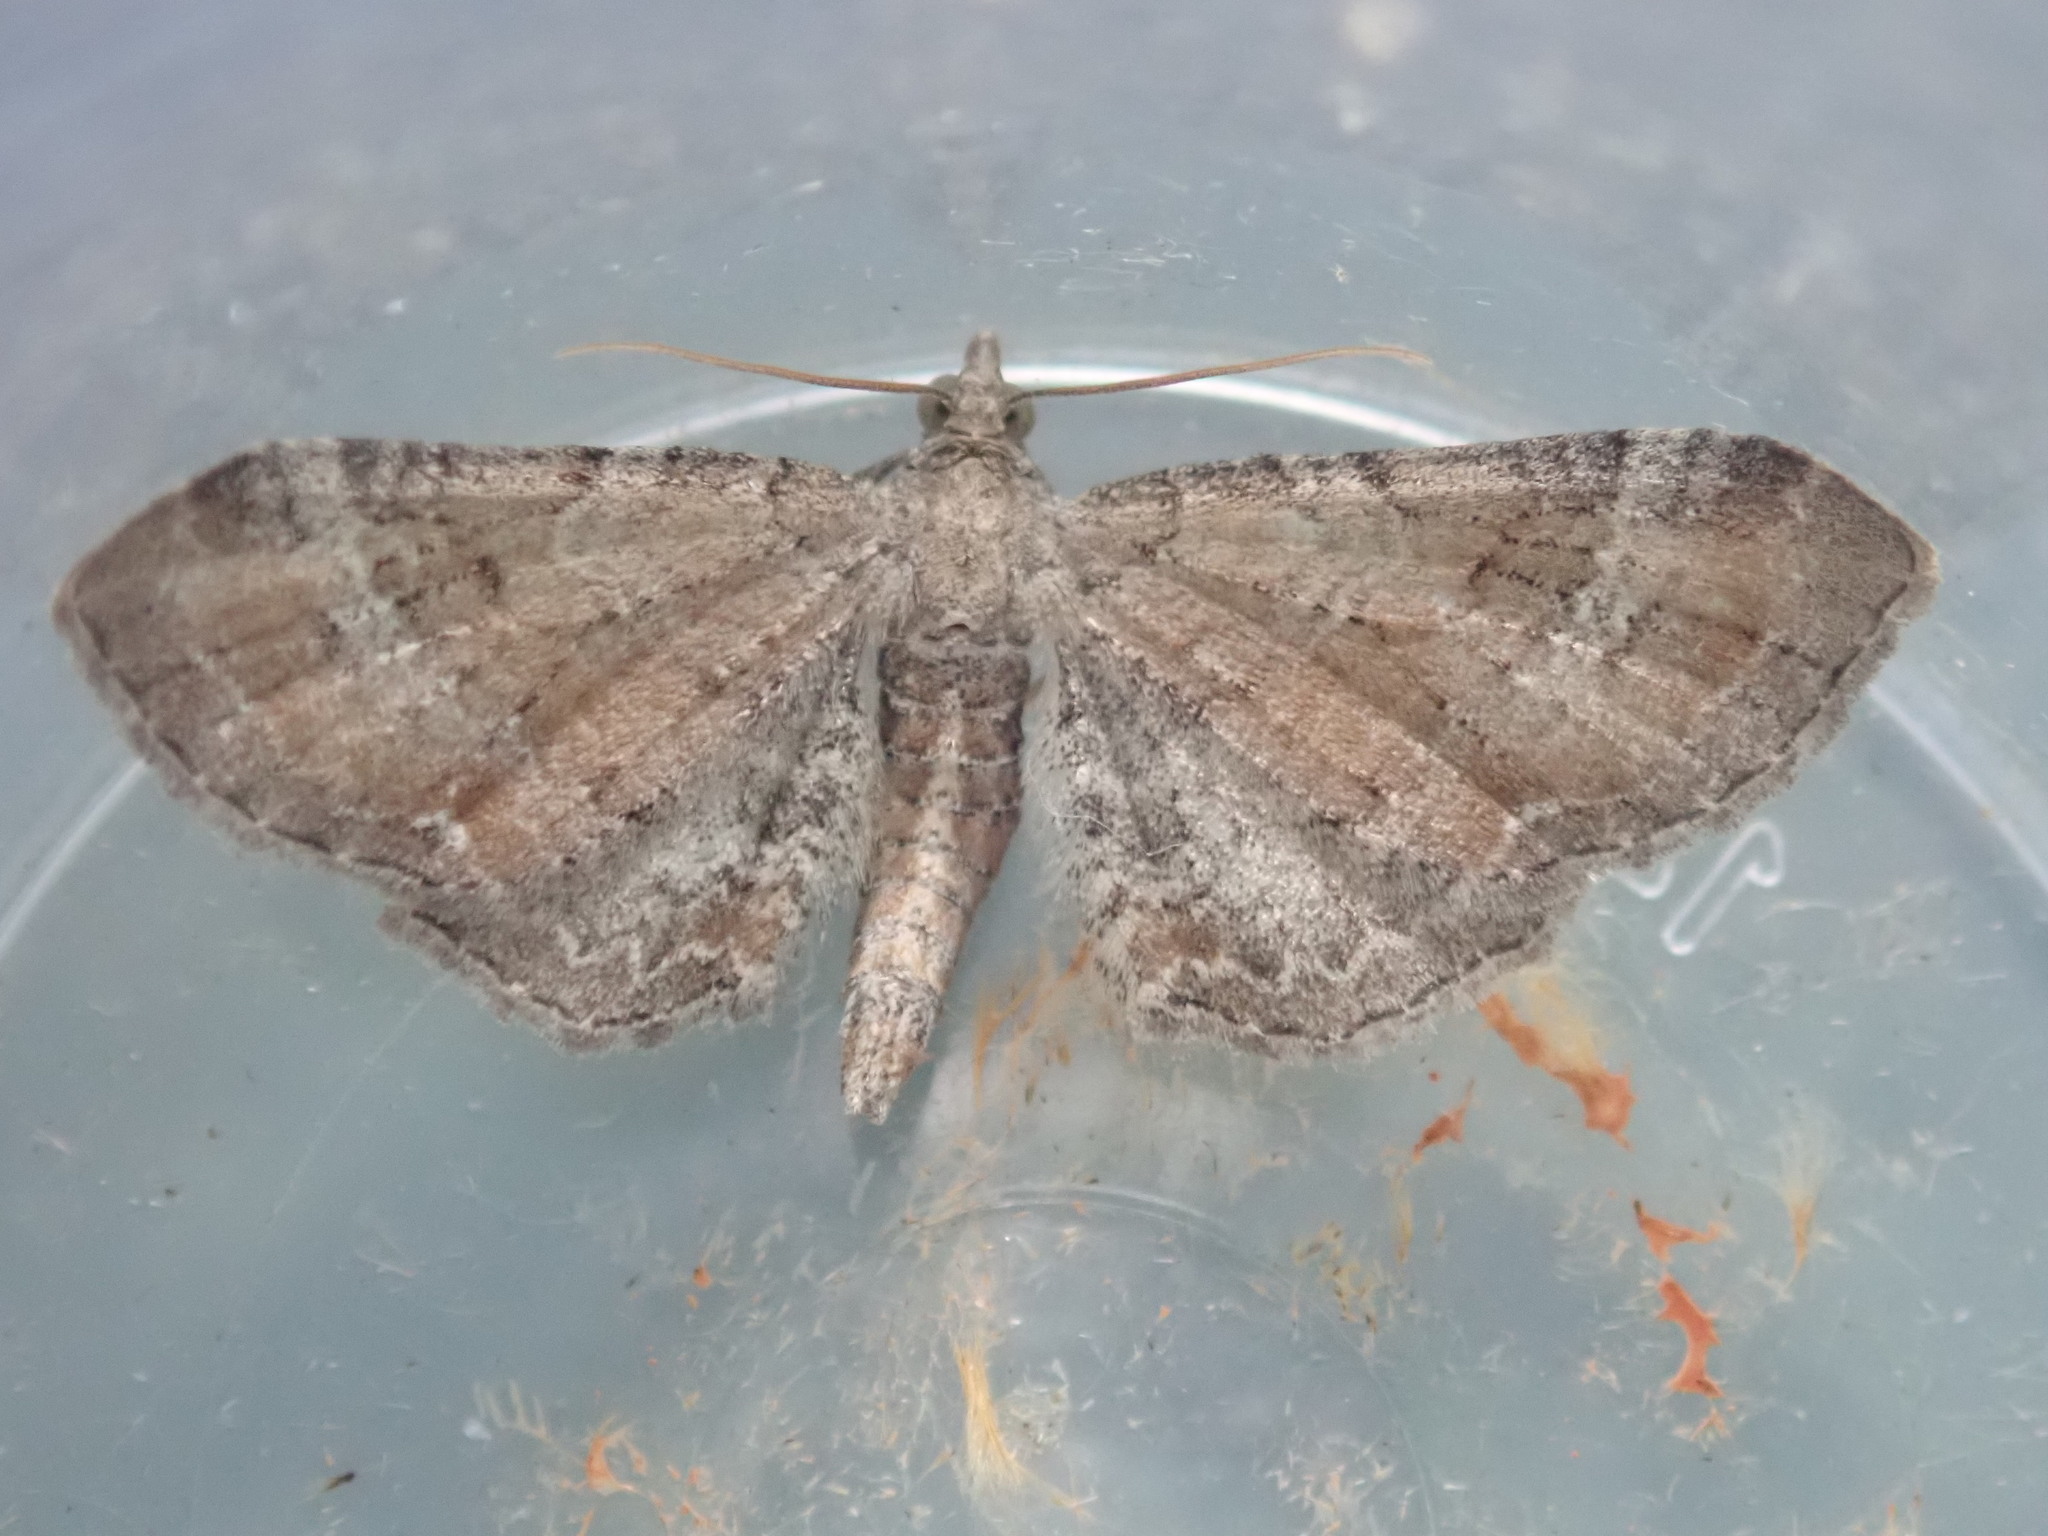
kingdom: Animalia
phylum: Arthropoda
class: Insecta
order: Lepidoptera
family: Geometridae
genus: Eupithecia
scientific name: Eupithecia simpliciata
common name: Plain pug
